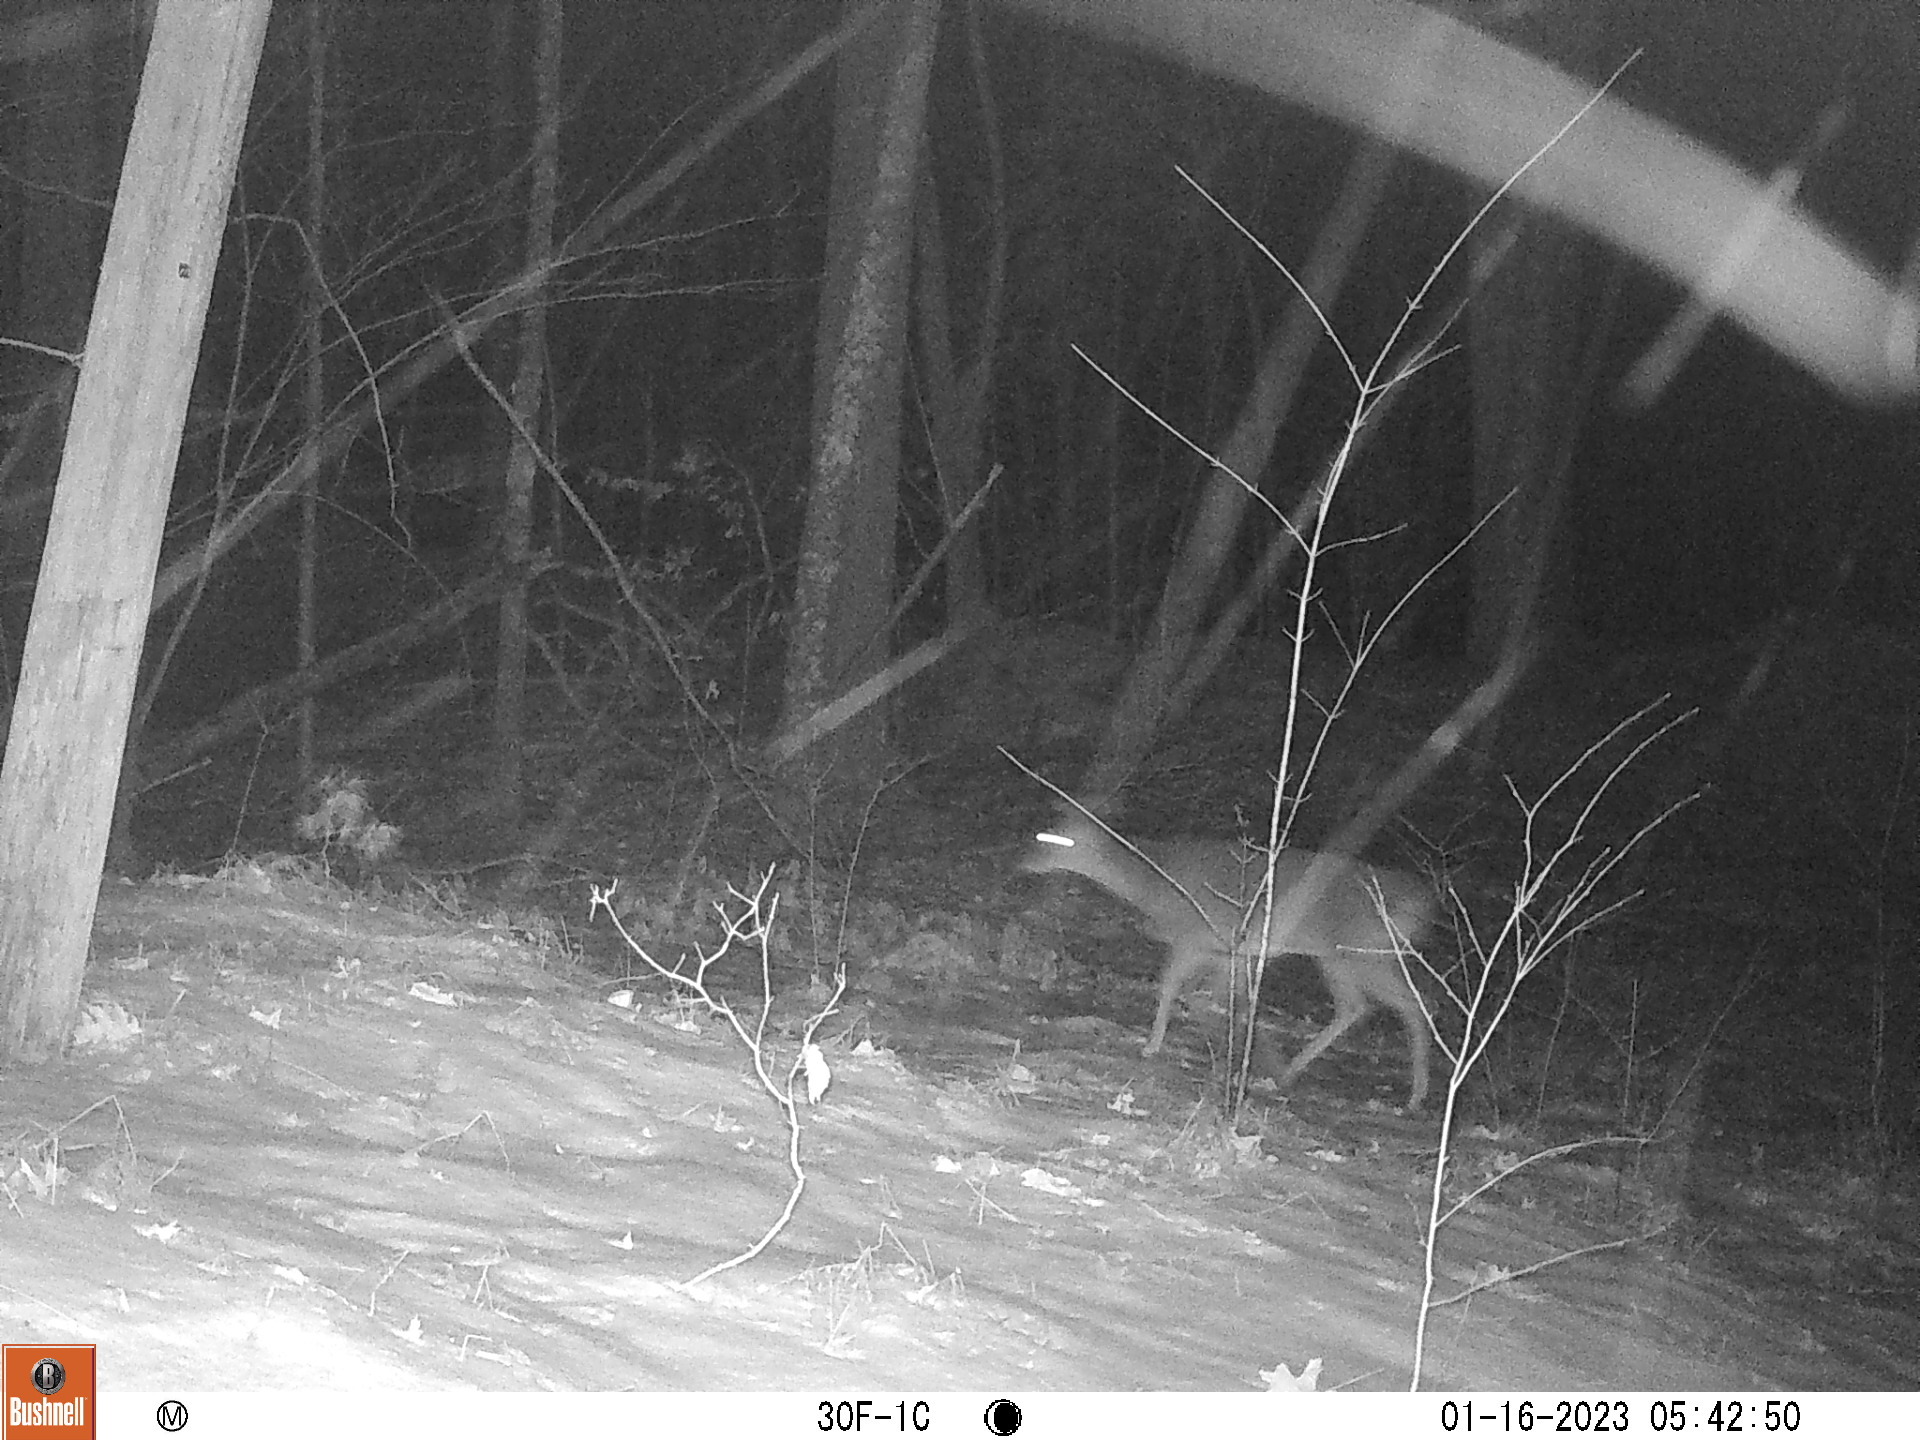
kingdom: Animalia
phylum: Chordata
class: Mammalia
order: Artiodactyla
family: Cervidae
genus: Odocoileus
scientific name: Odocoileus virginianus
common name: White-tailed deer
